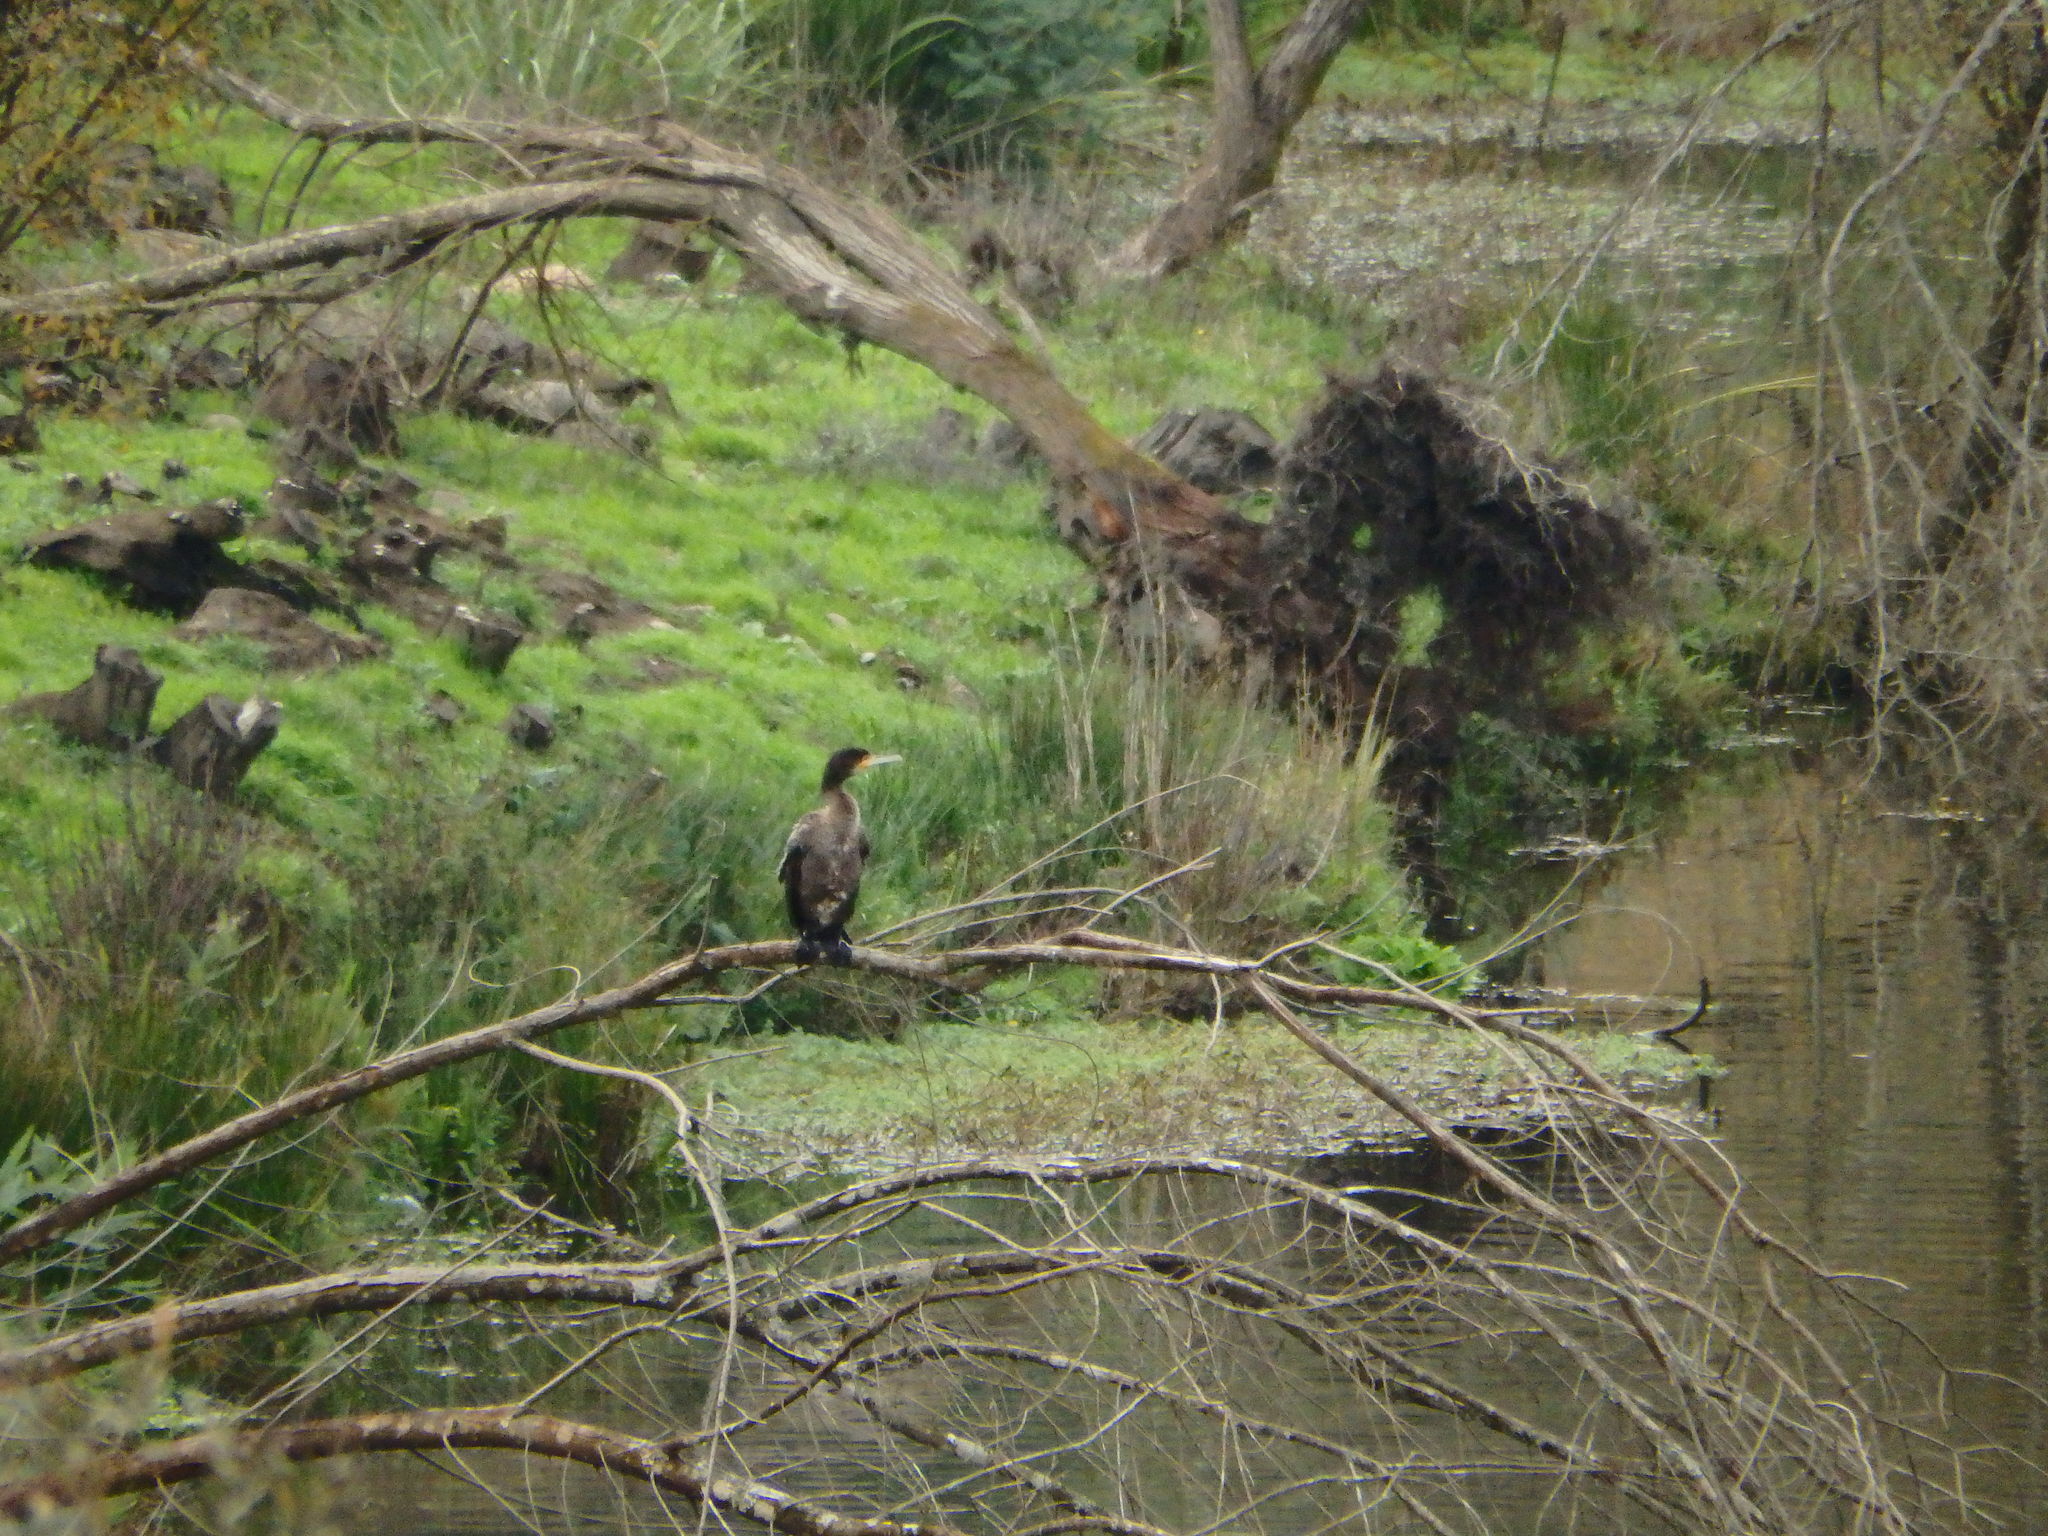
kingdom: Animalia
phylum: Chordata
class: Aves
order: Suliformes
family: Phalacrocoracidae
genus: Phalacrocorax
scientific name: Phalacrocorax carbo
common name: Great cormorant
